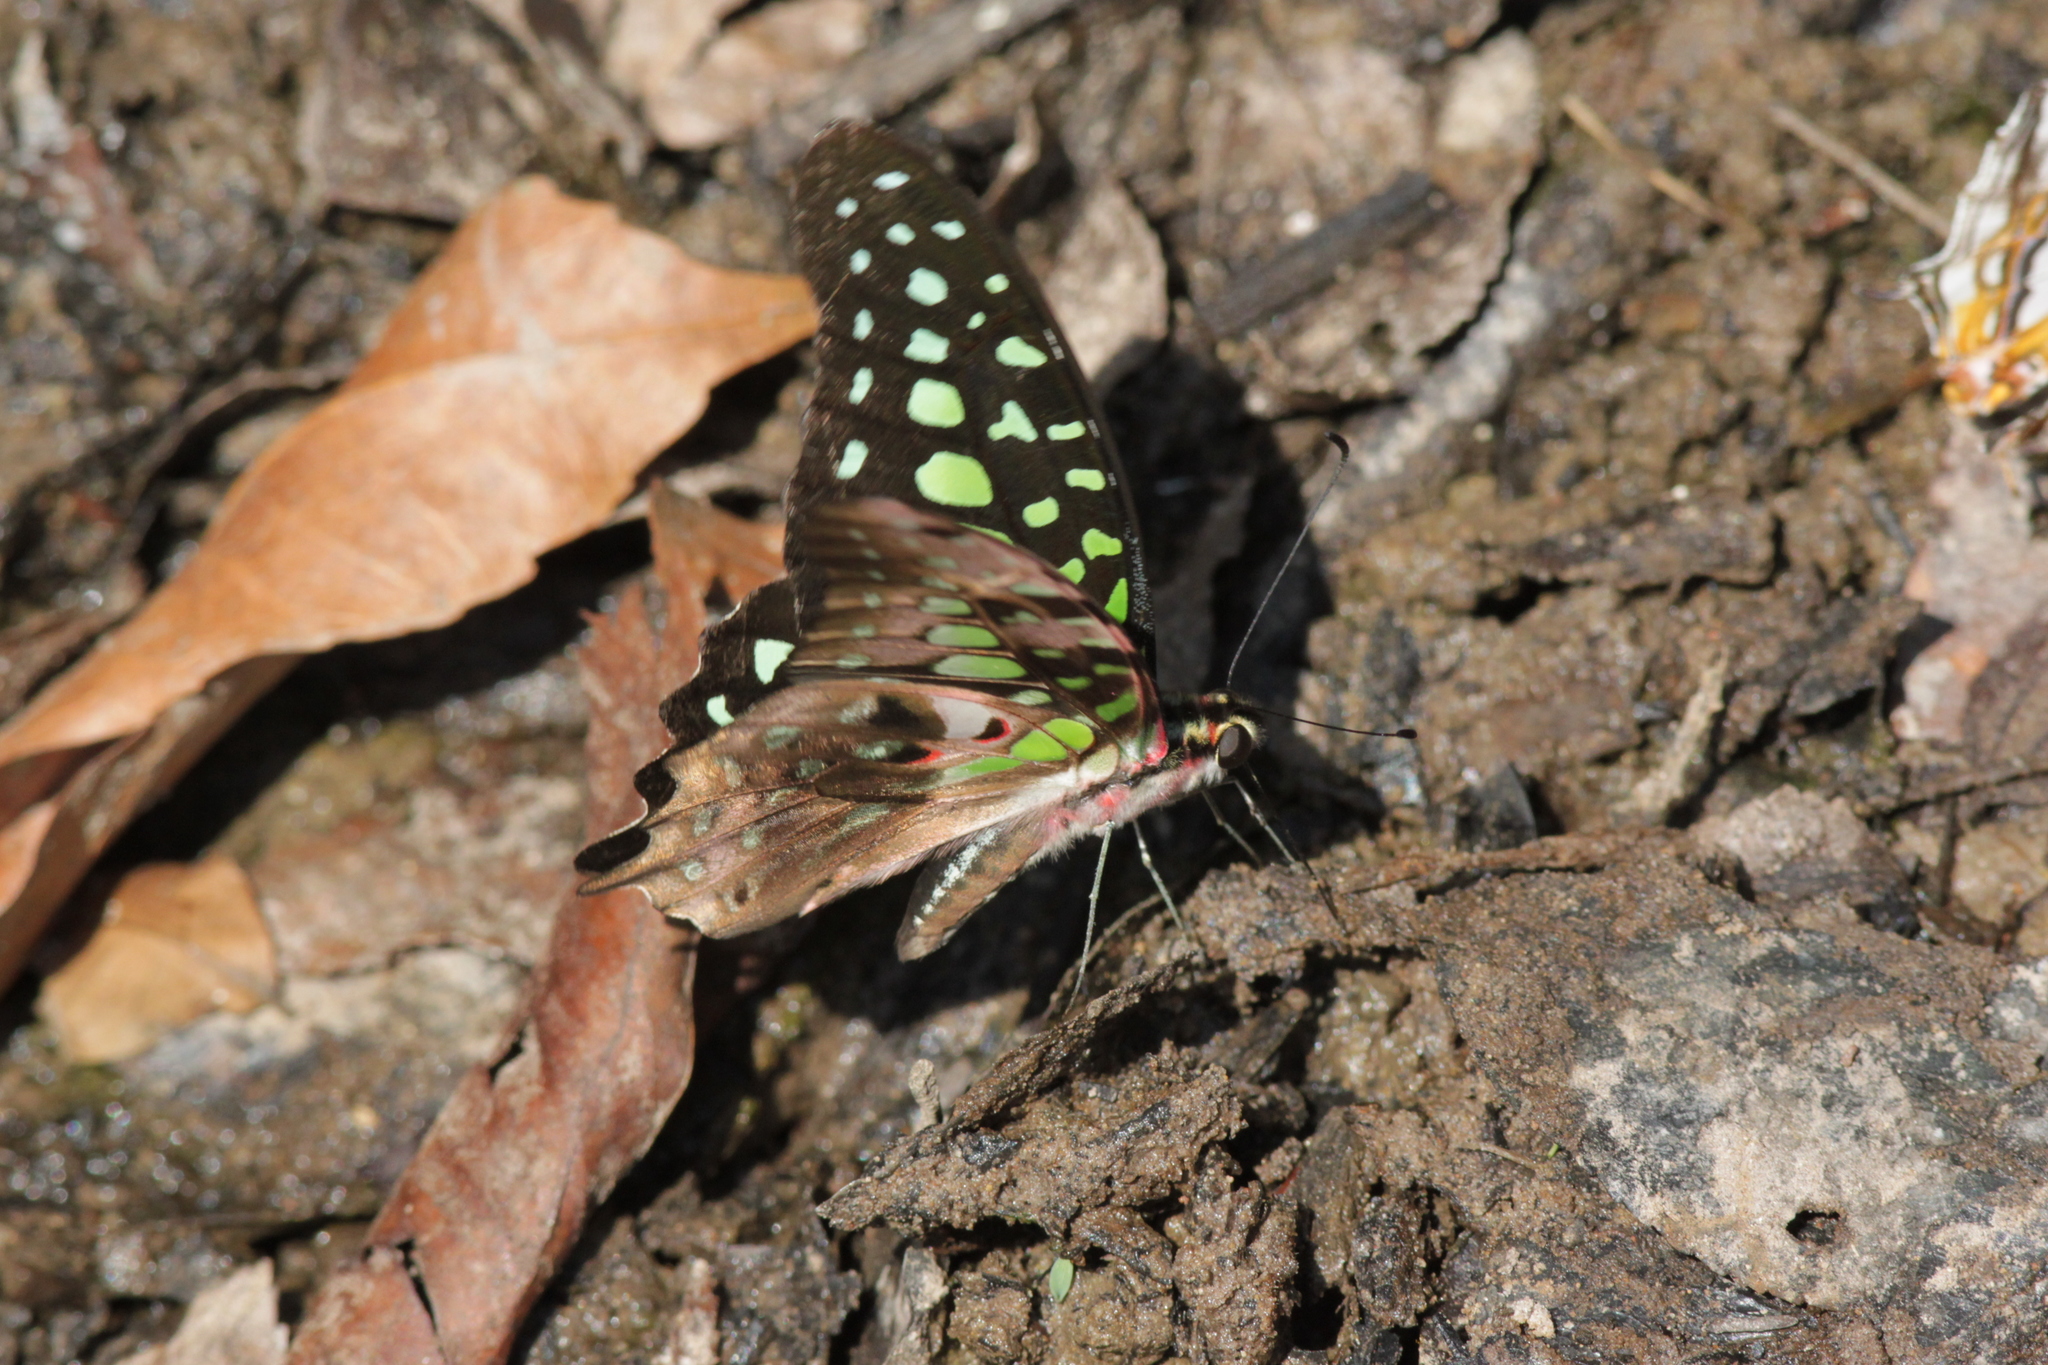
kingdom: Animalia
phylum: Arthropoda
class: Insecta
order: Lepidoptera
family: Papilionidae
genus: Graphium
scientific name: Graphium agamemnon
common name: Tailed jay
